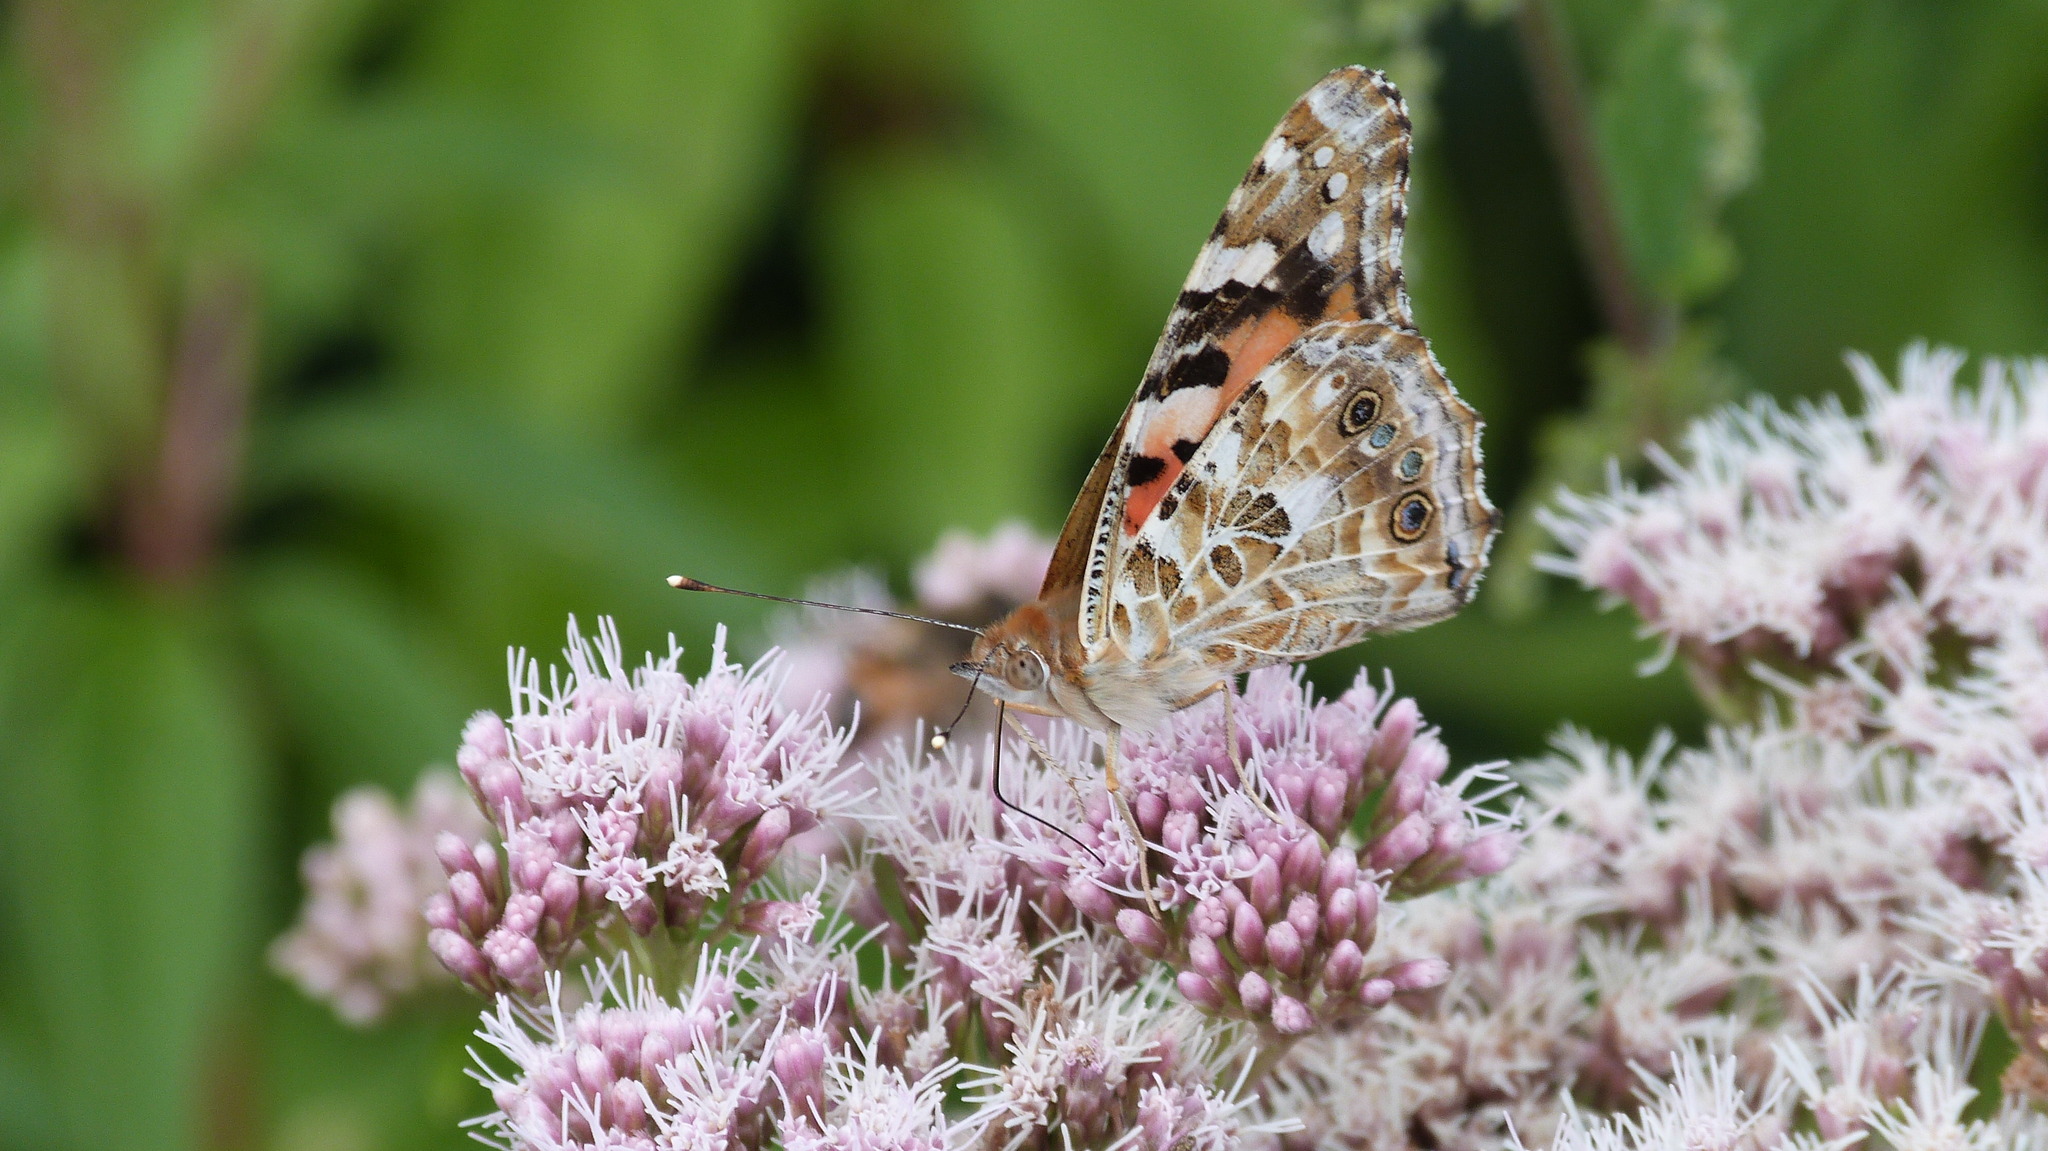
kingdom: Animalia
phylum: Arthropoda
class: Insecta
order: Lepidoptera
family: Nymphalidae
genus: Vanessa
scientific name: Vanessa cardui
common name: Painted lady
